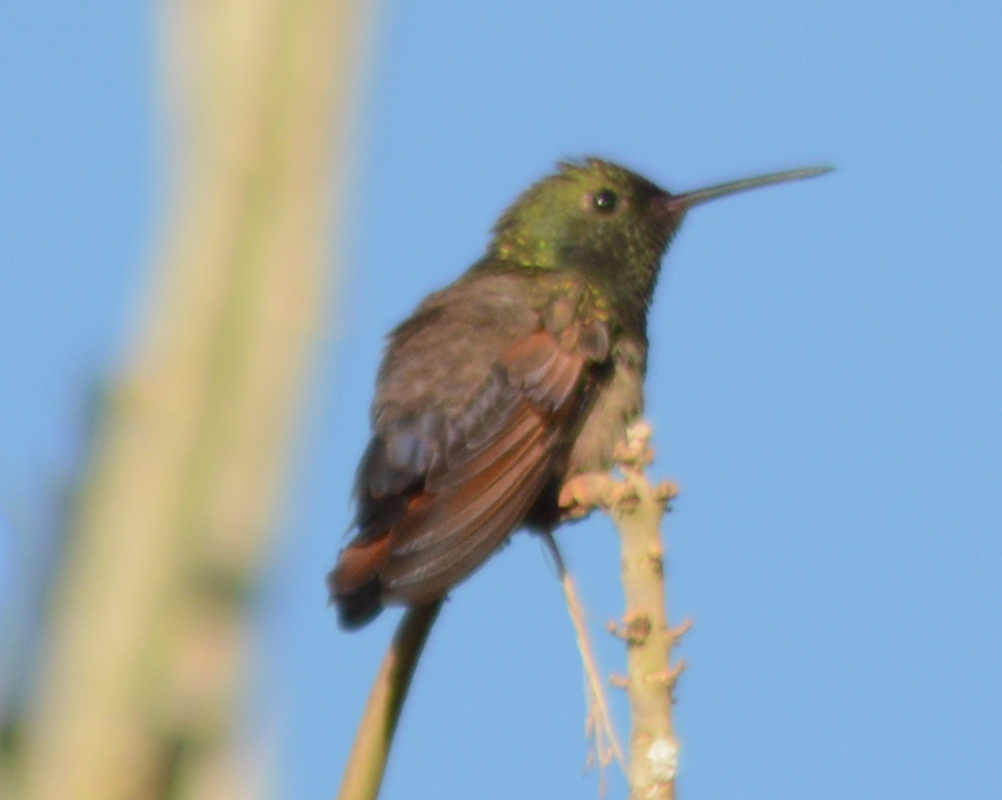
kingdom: Animalia
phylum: Chordata
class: Aves
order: Apodiformes
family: Trochilidae
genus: Saucerottia
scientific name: Saucerottia beryllina
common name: Berylline hummingbird
